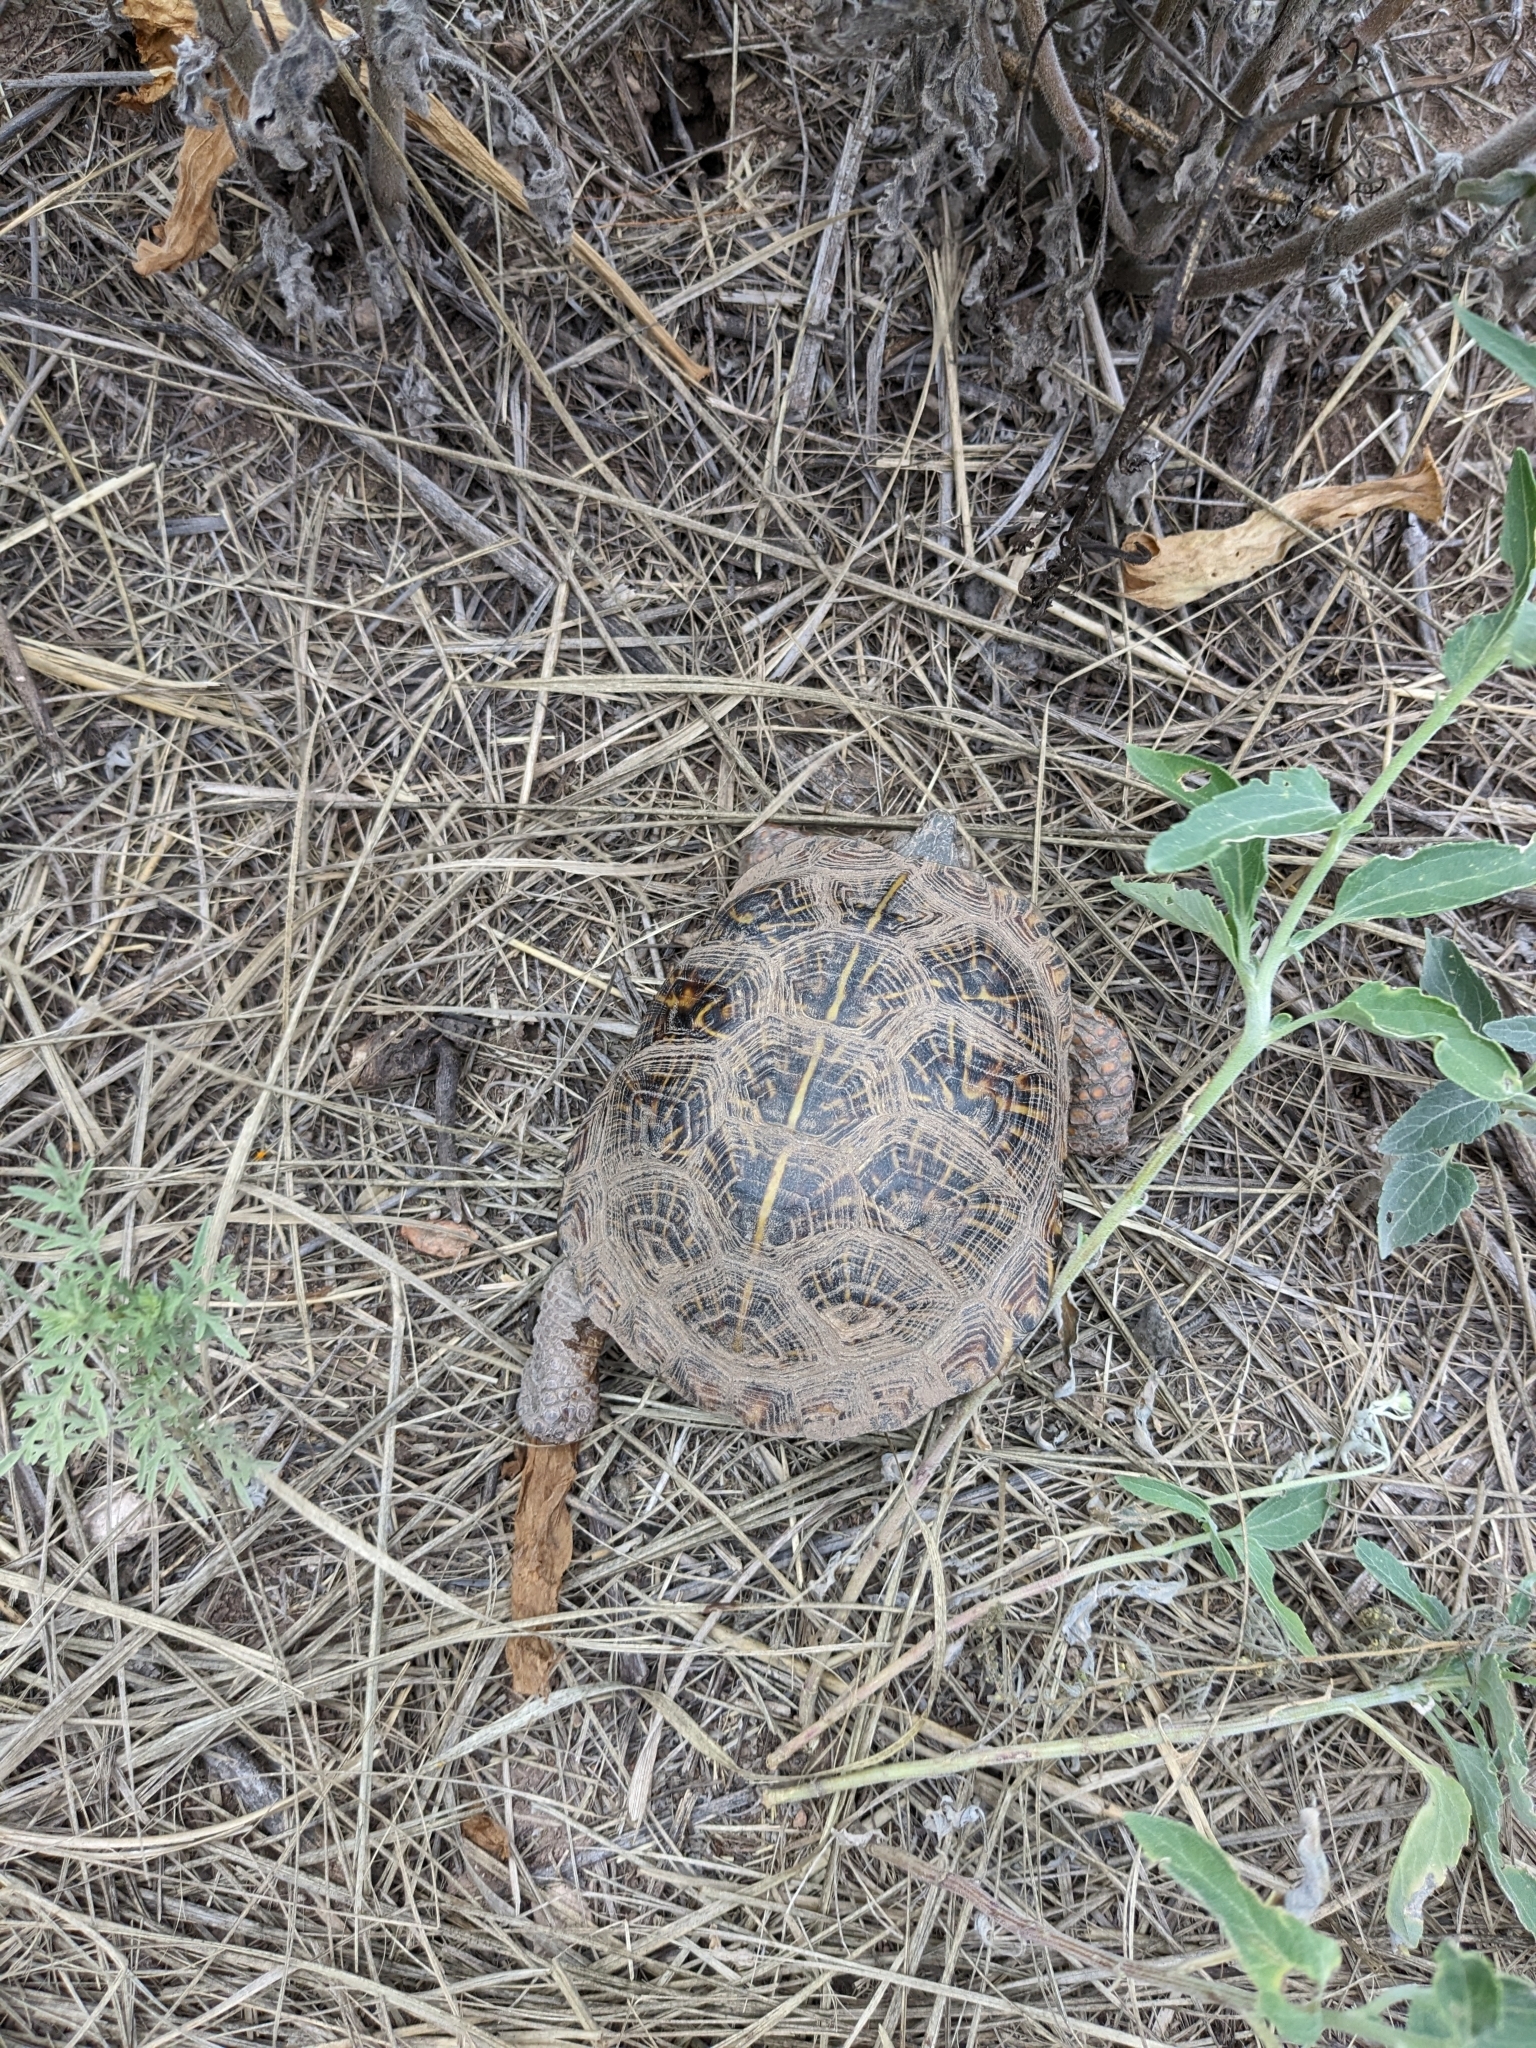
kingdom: Animalia
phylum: Chordata
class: Testudines
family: Emydidae
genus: Terrapene
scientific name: Terrapene ornata
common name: Western box turtle
